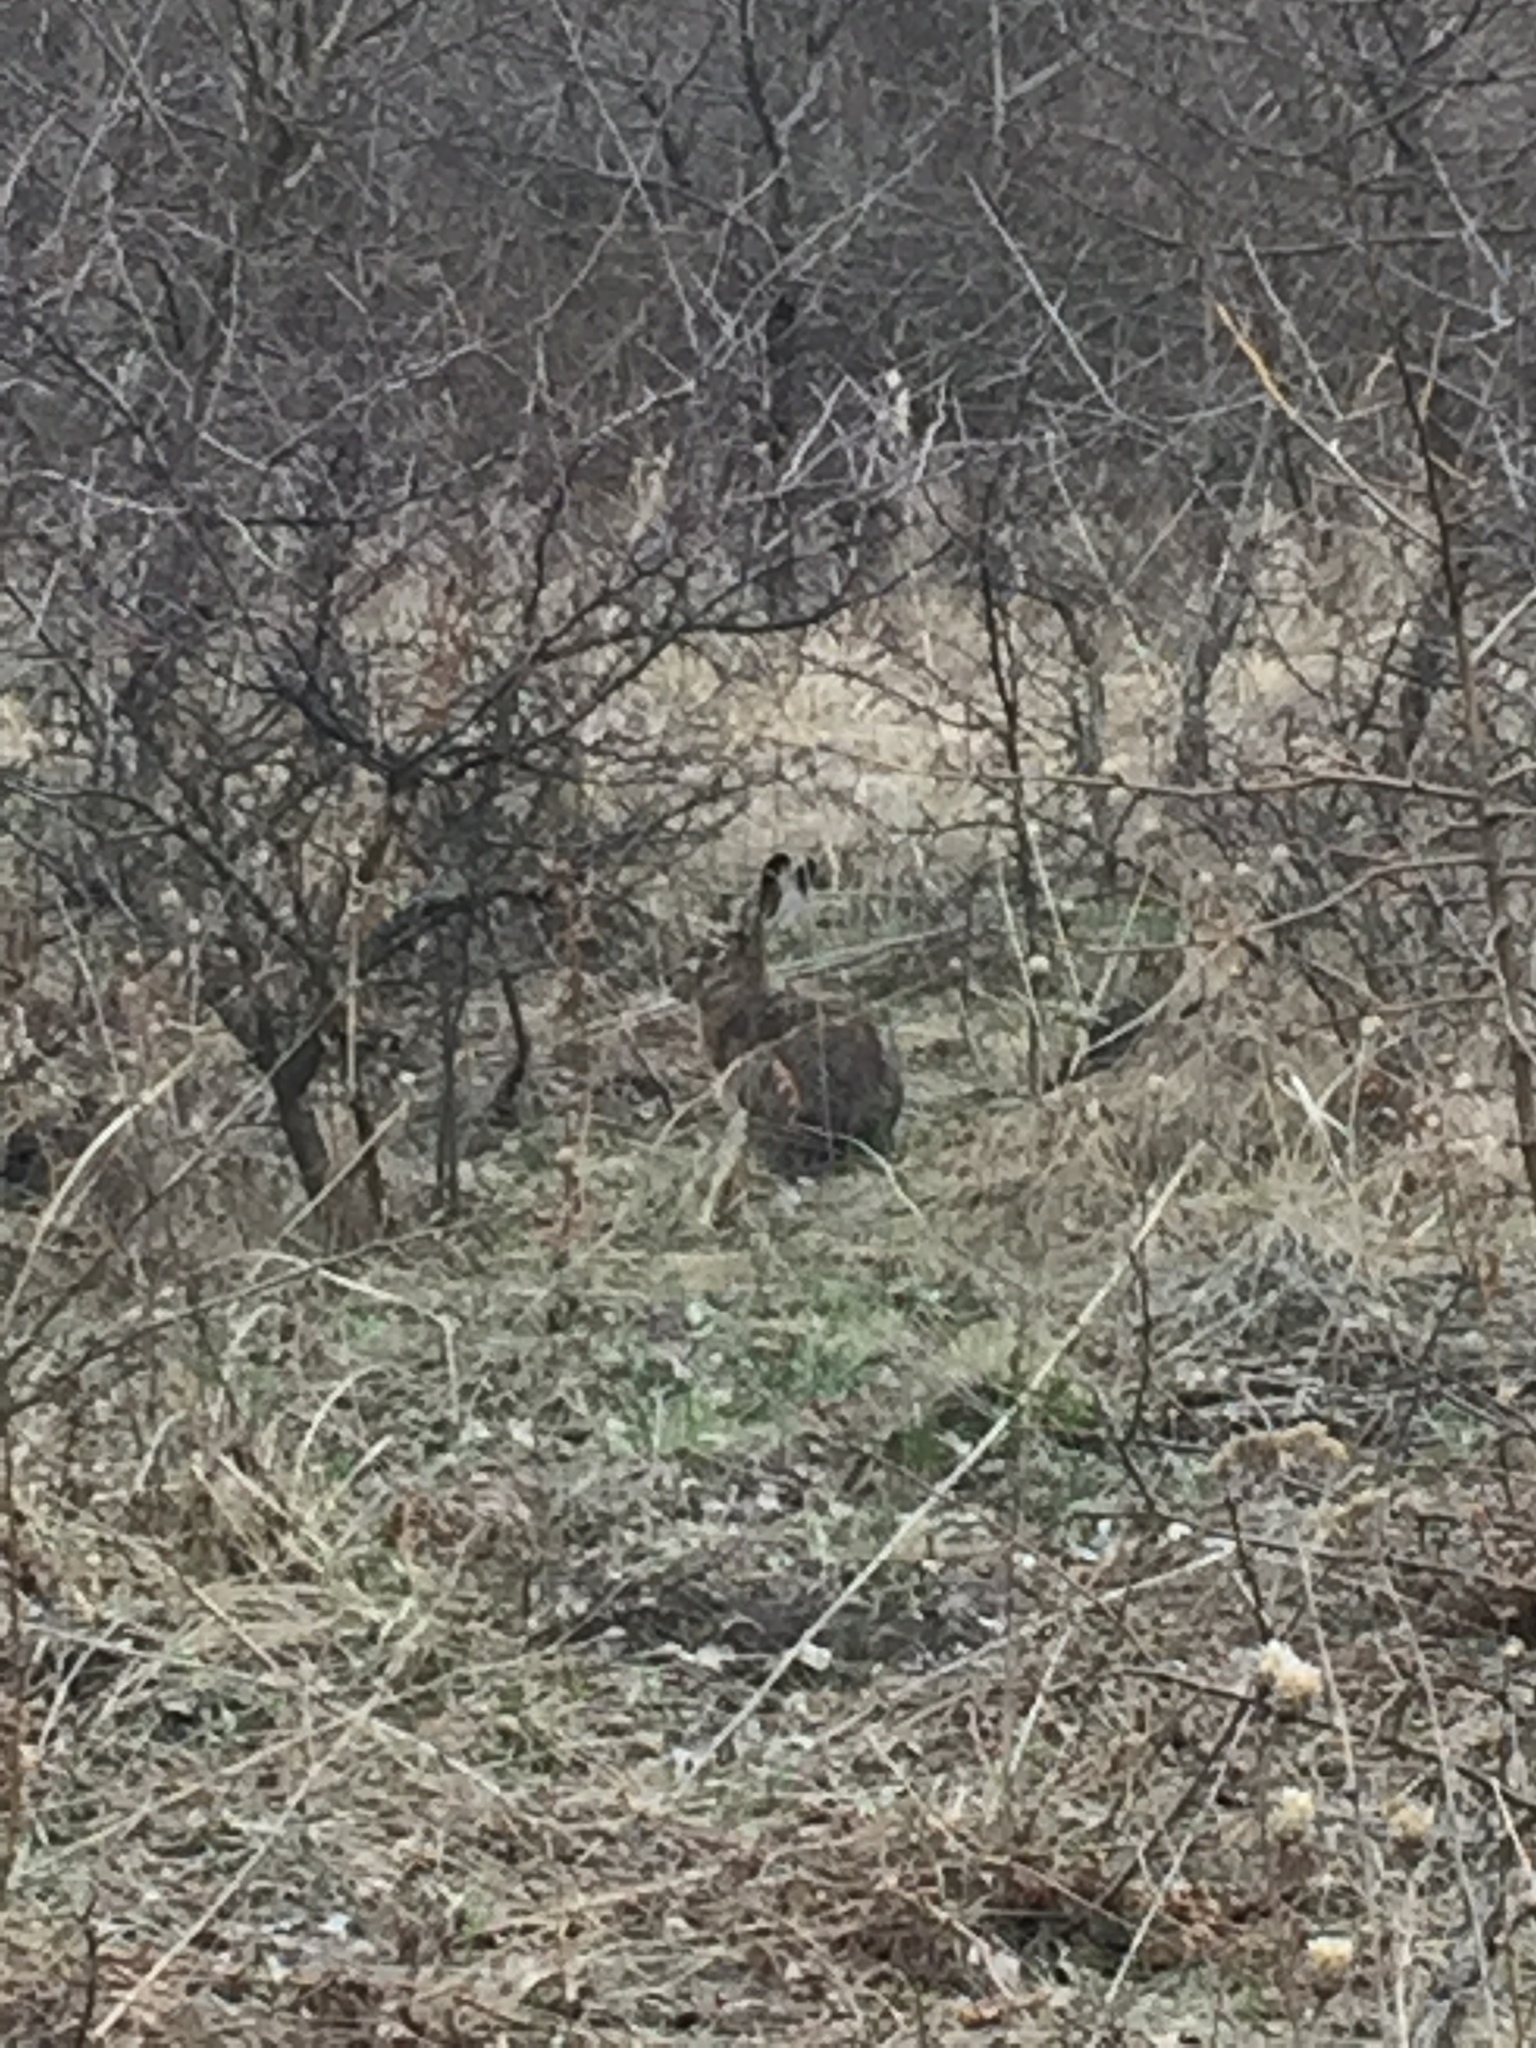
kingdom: Animalia
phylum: Chordata
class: Mammalia
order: Lagomorpha
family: Leporidae
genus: Lepus
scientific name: Lepus europaeus
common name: European hare
